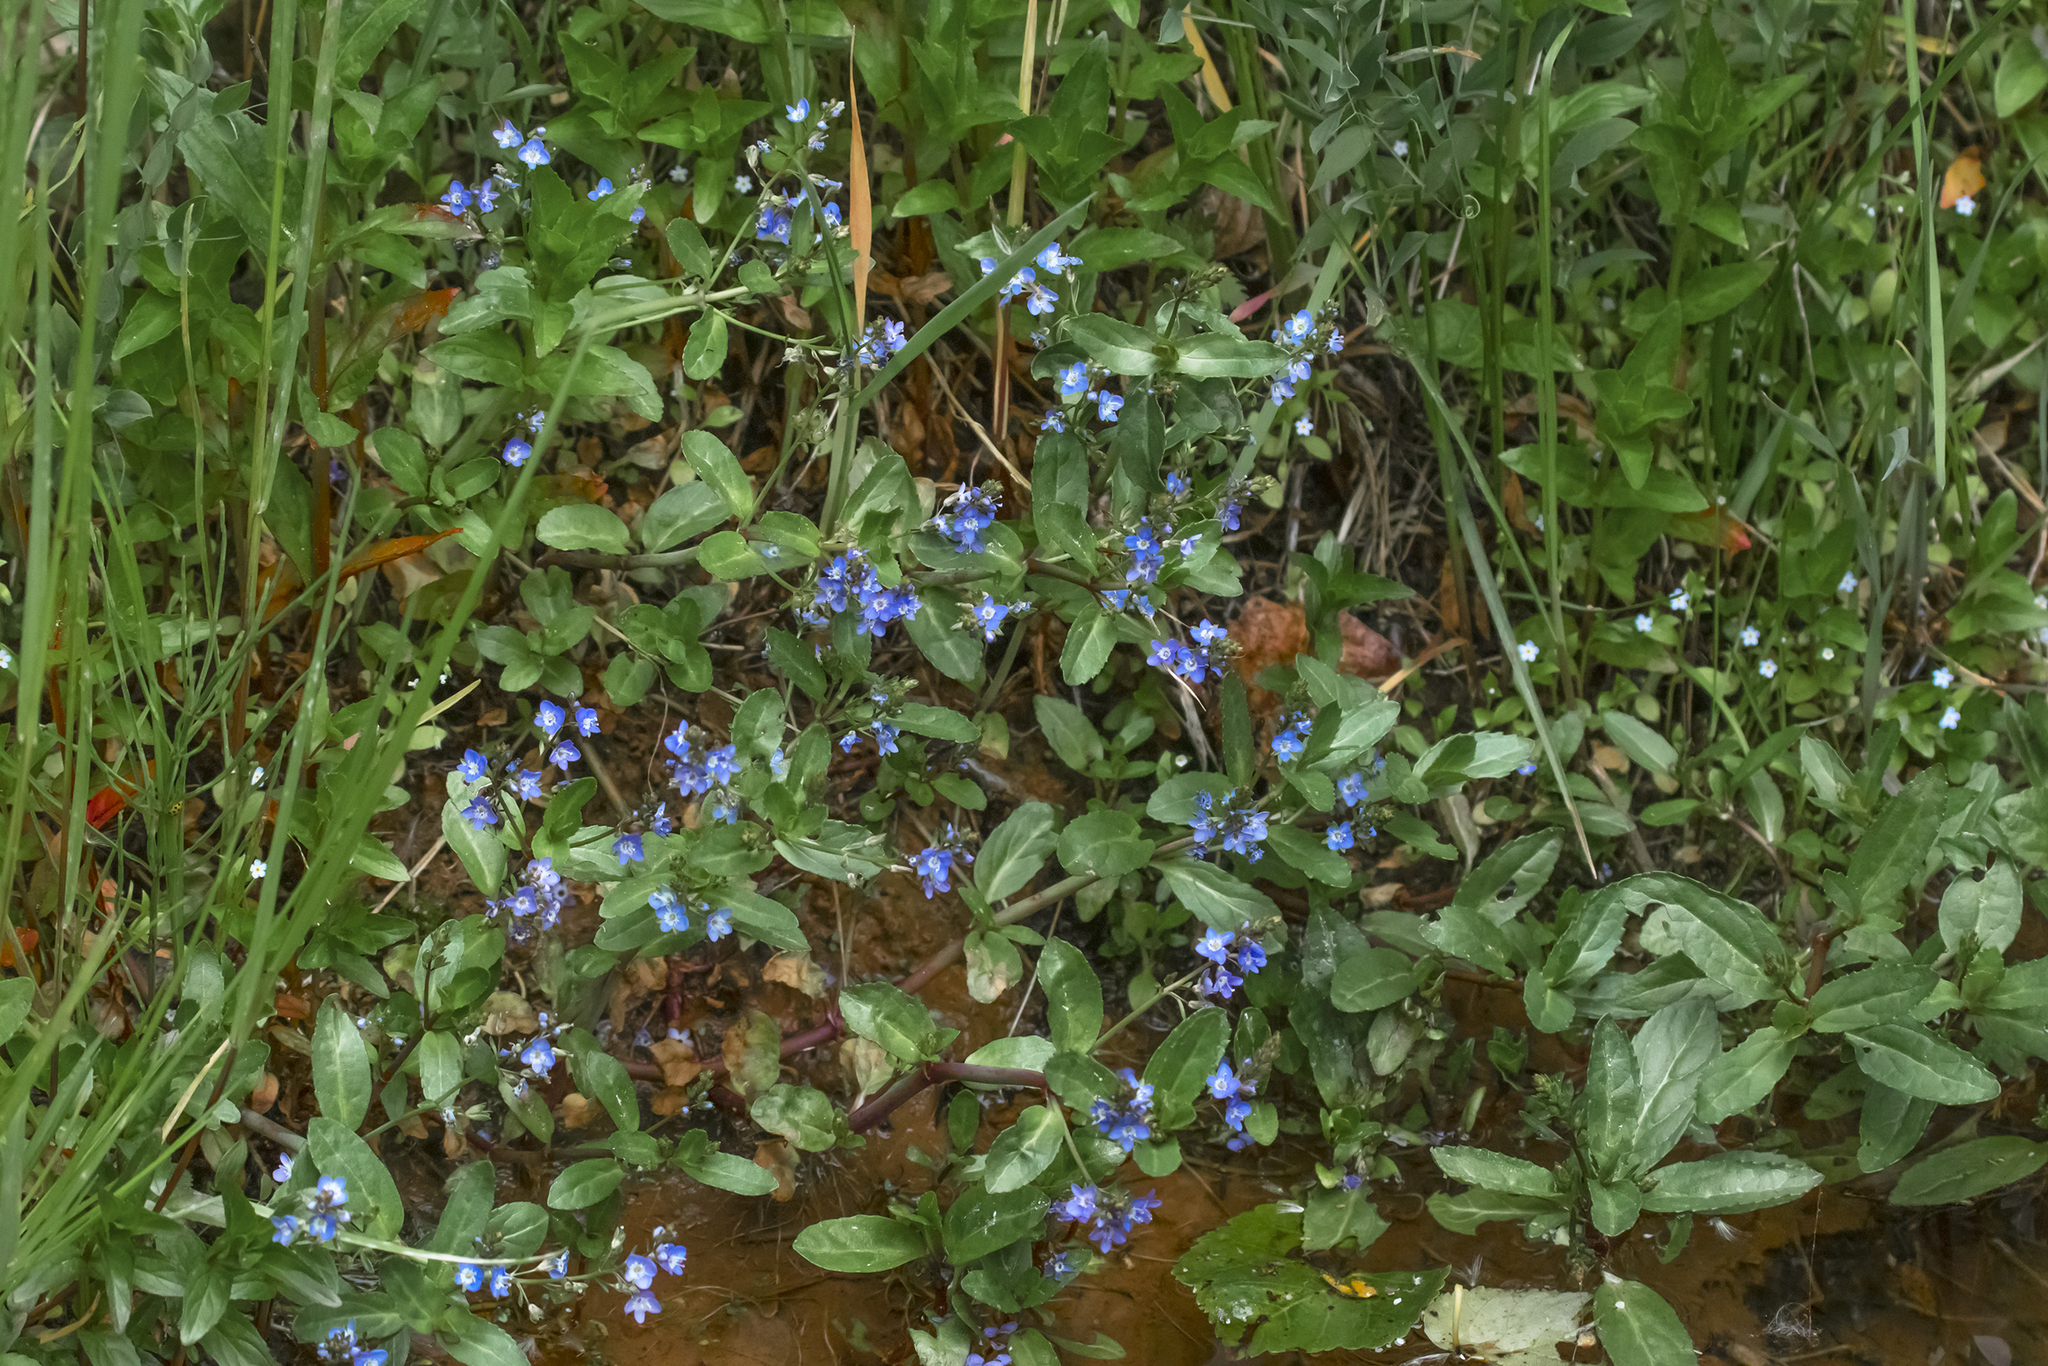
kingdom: Plantae
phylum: Tracheophyta
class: Magnoliopsida
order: Lamiales
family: Plantaginaceae
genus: Veronica
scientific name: Veronica beccabunga
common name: Brooklime
